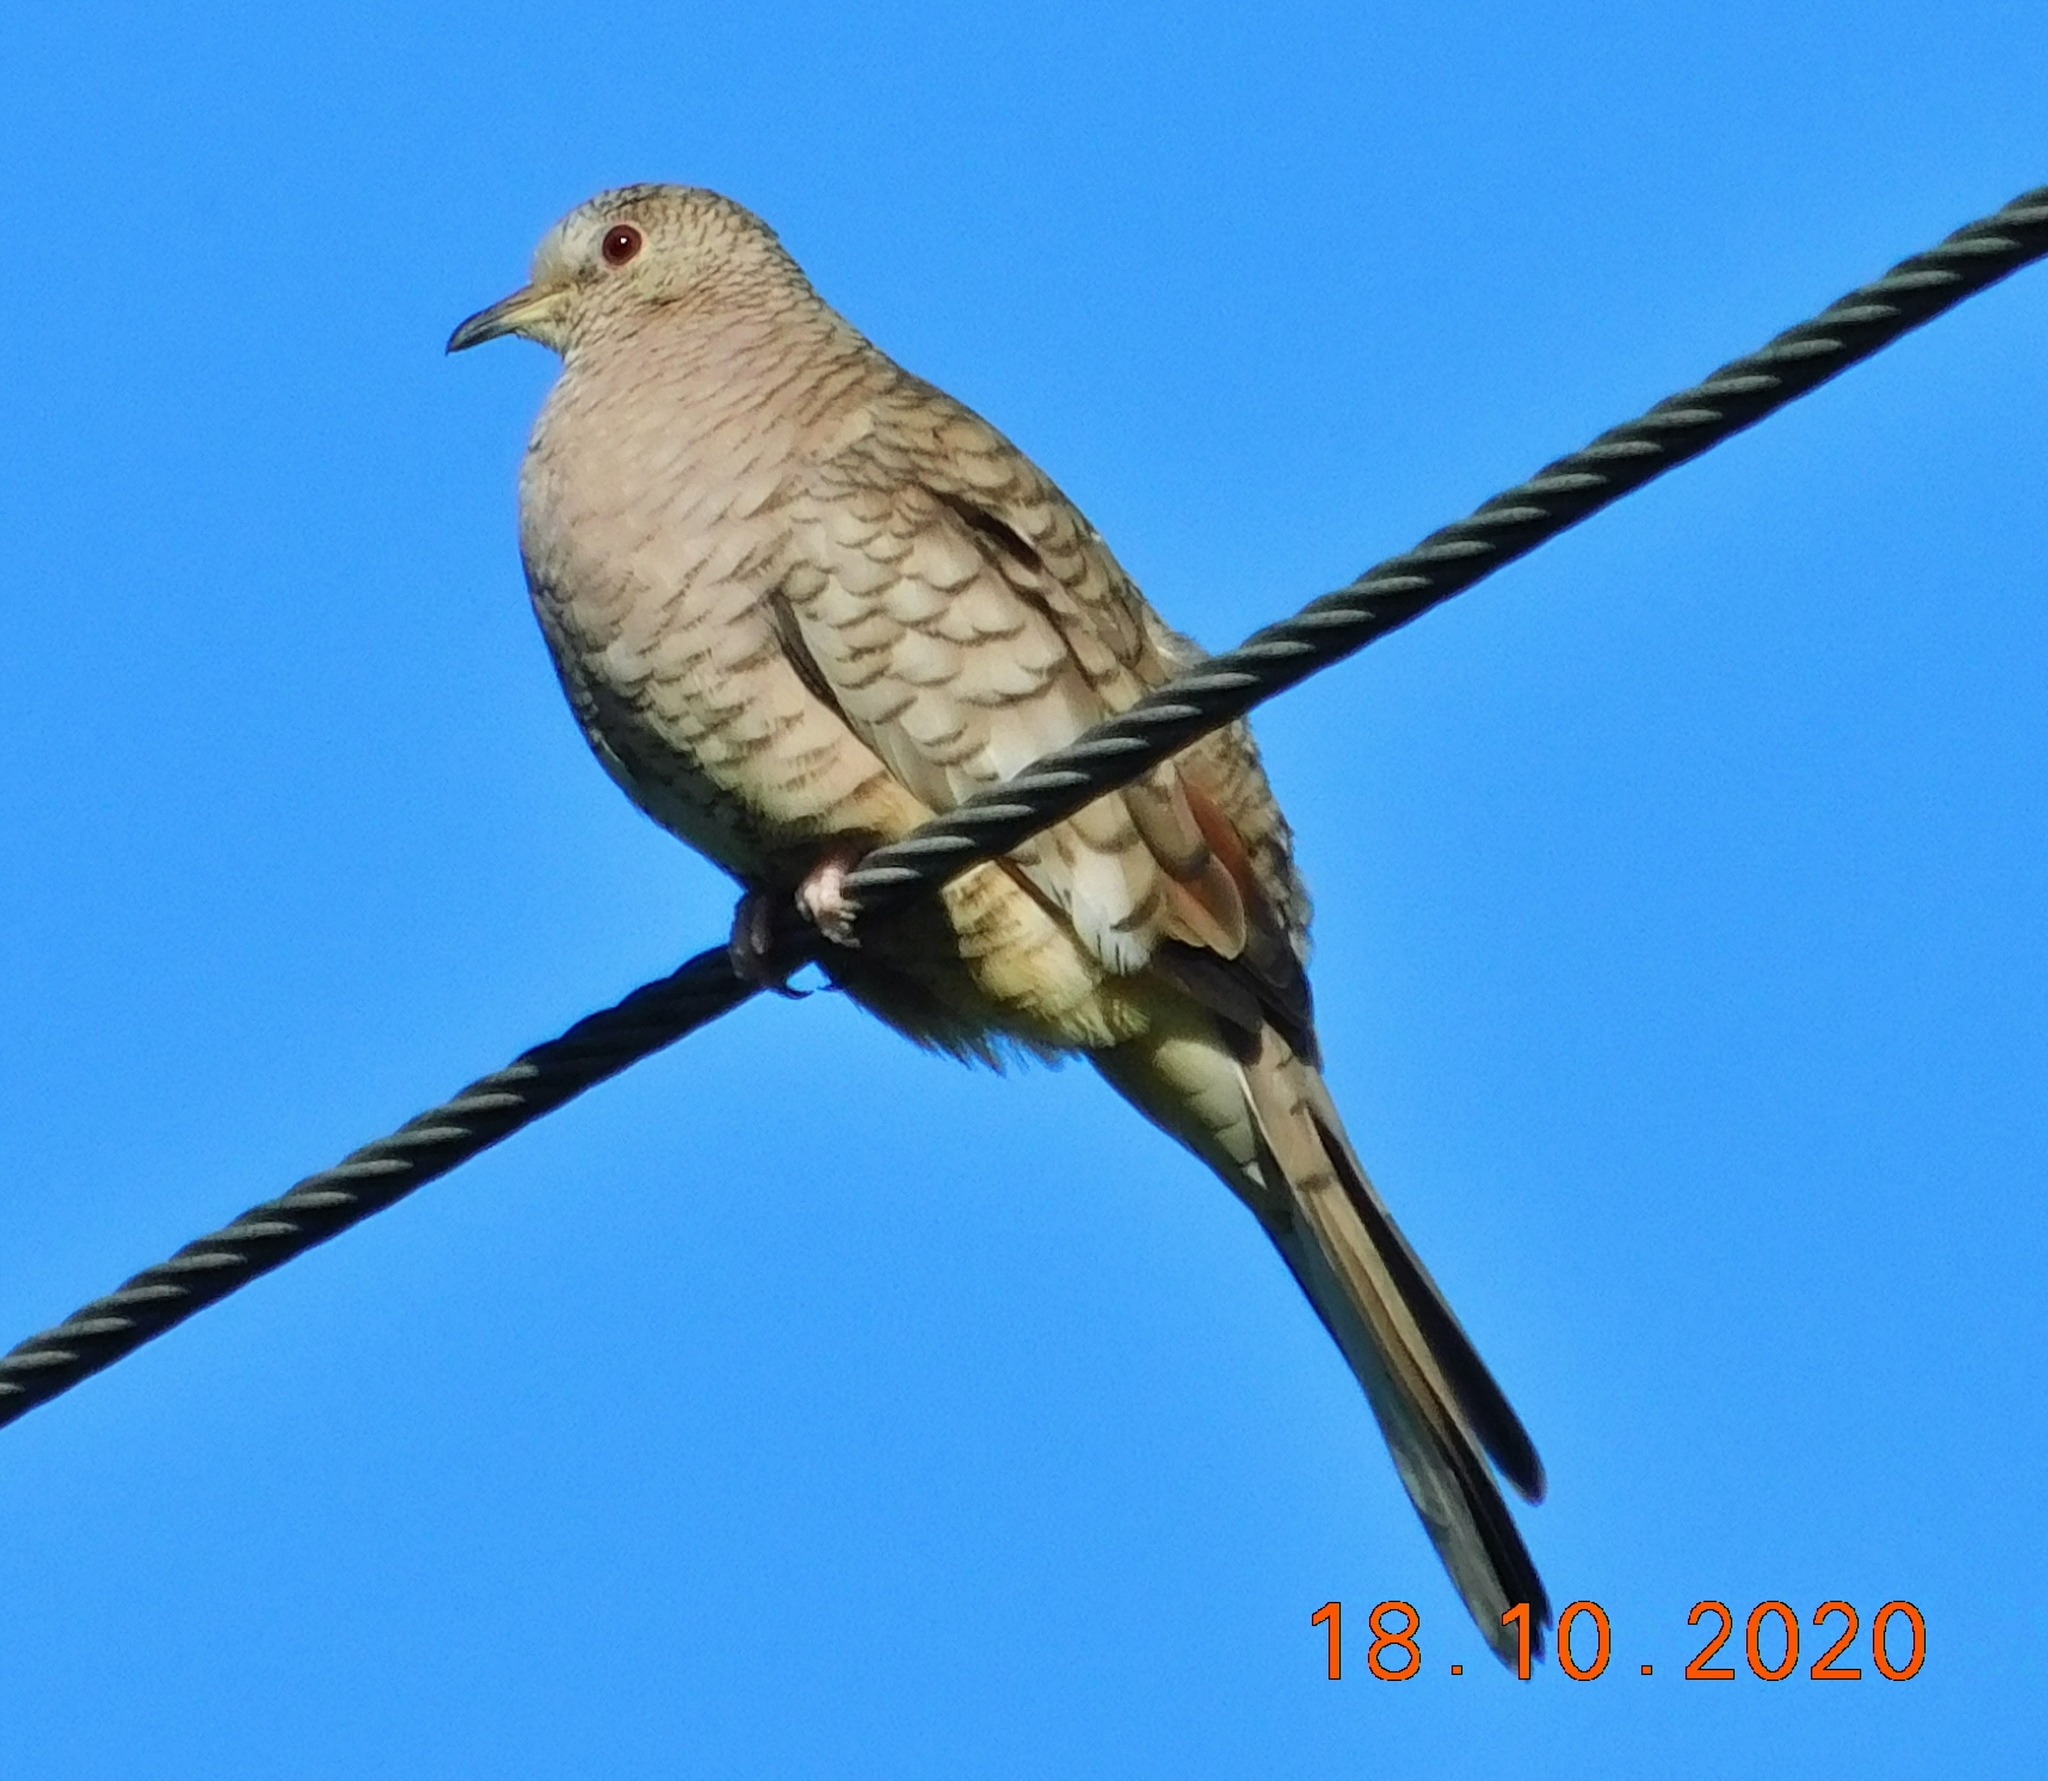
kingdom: Animalia
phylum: Chordata
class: Aves
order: Columbiformes
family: Columbidae
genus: Columbina
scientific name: Columbina inca
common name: Inca dove
